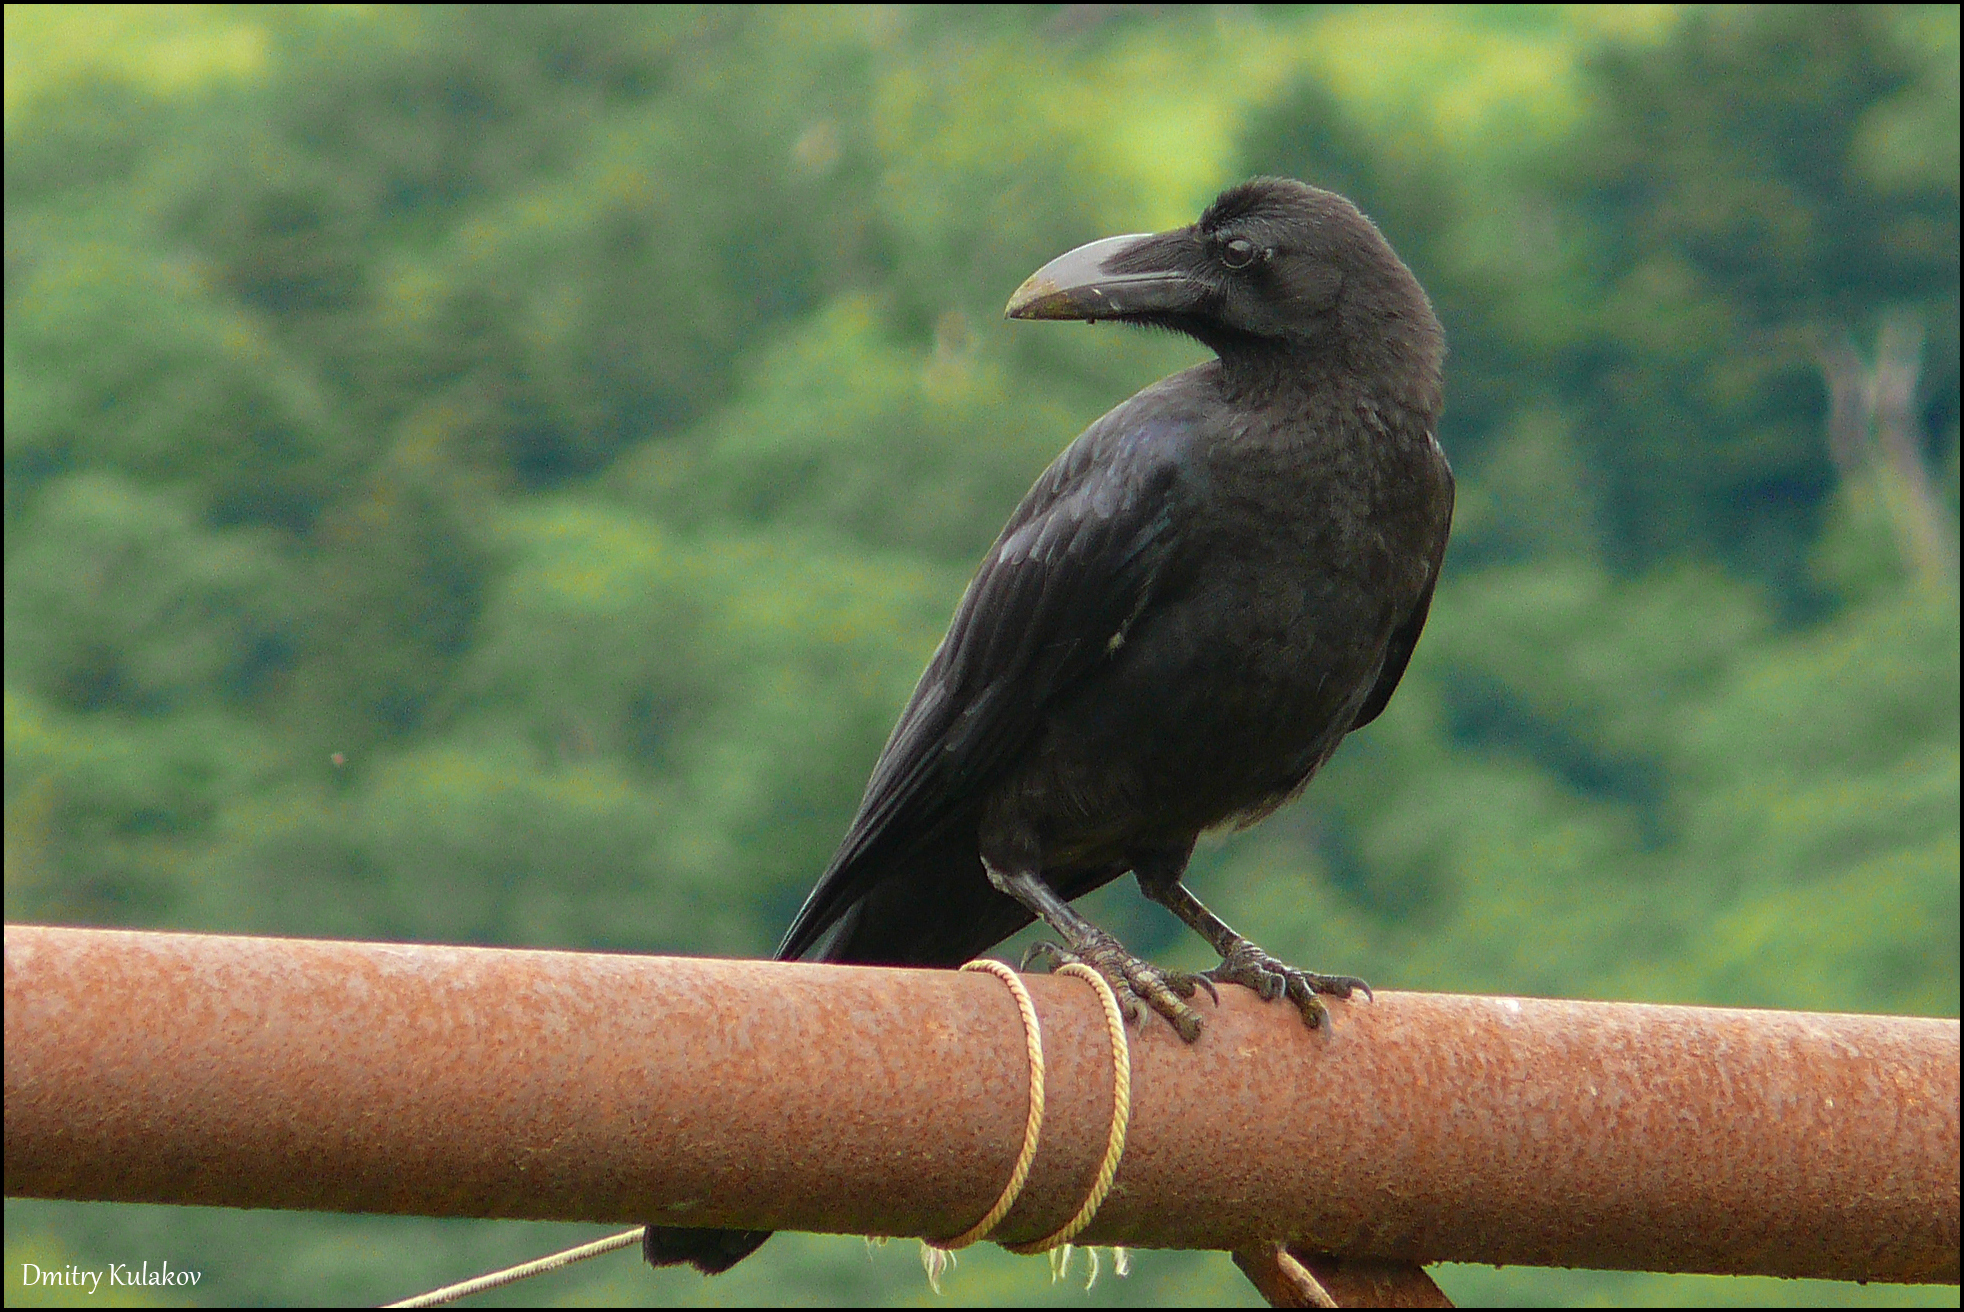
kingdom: Animalia
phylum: Chordata
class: Aves
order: Passeriformes
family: Corvidae
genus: Corvus
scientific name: Corvus macrorhynchos
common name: Large-billed crow
